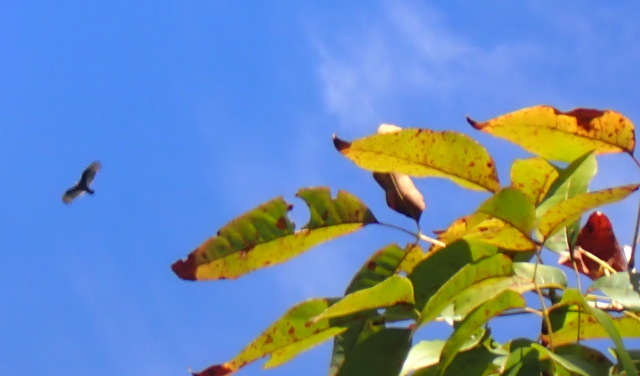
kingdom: Animalia
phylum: Chordata
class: Aves
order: Accipitriformes
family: Cathartidae
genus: Cathartes
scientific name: Cathartes aura
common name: Turkey vulture
